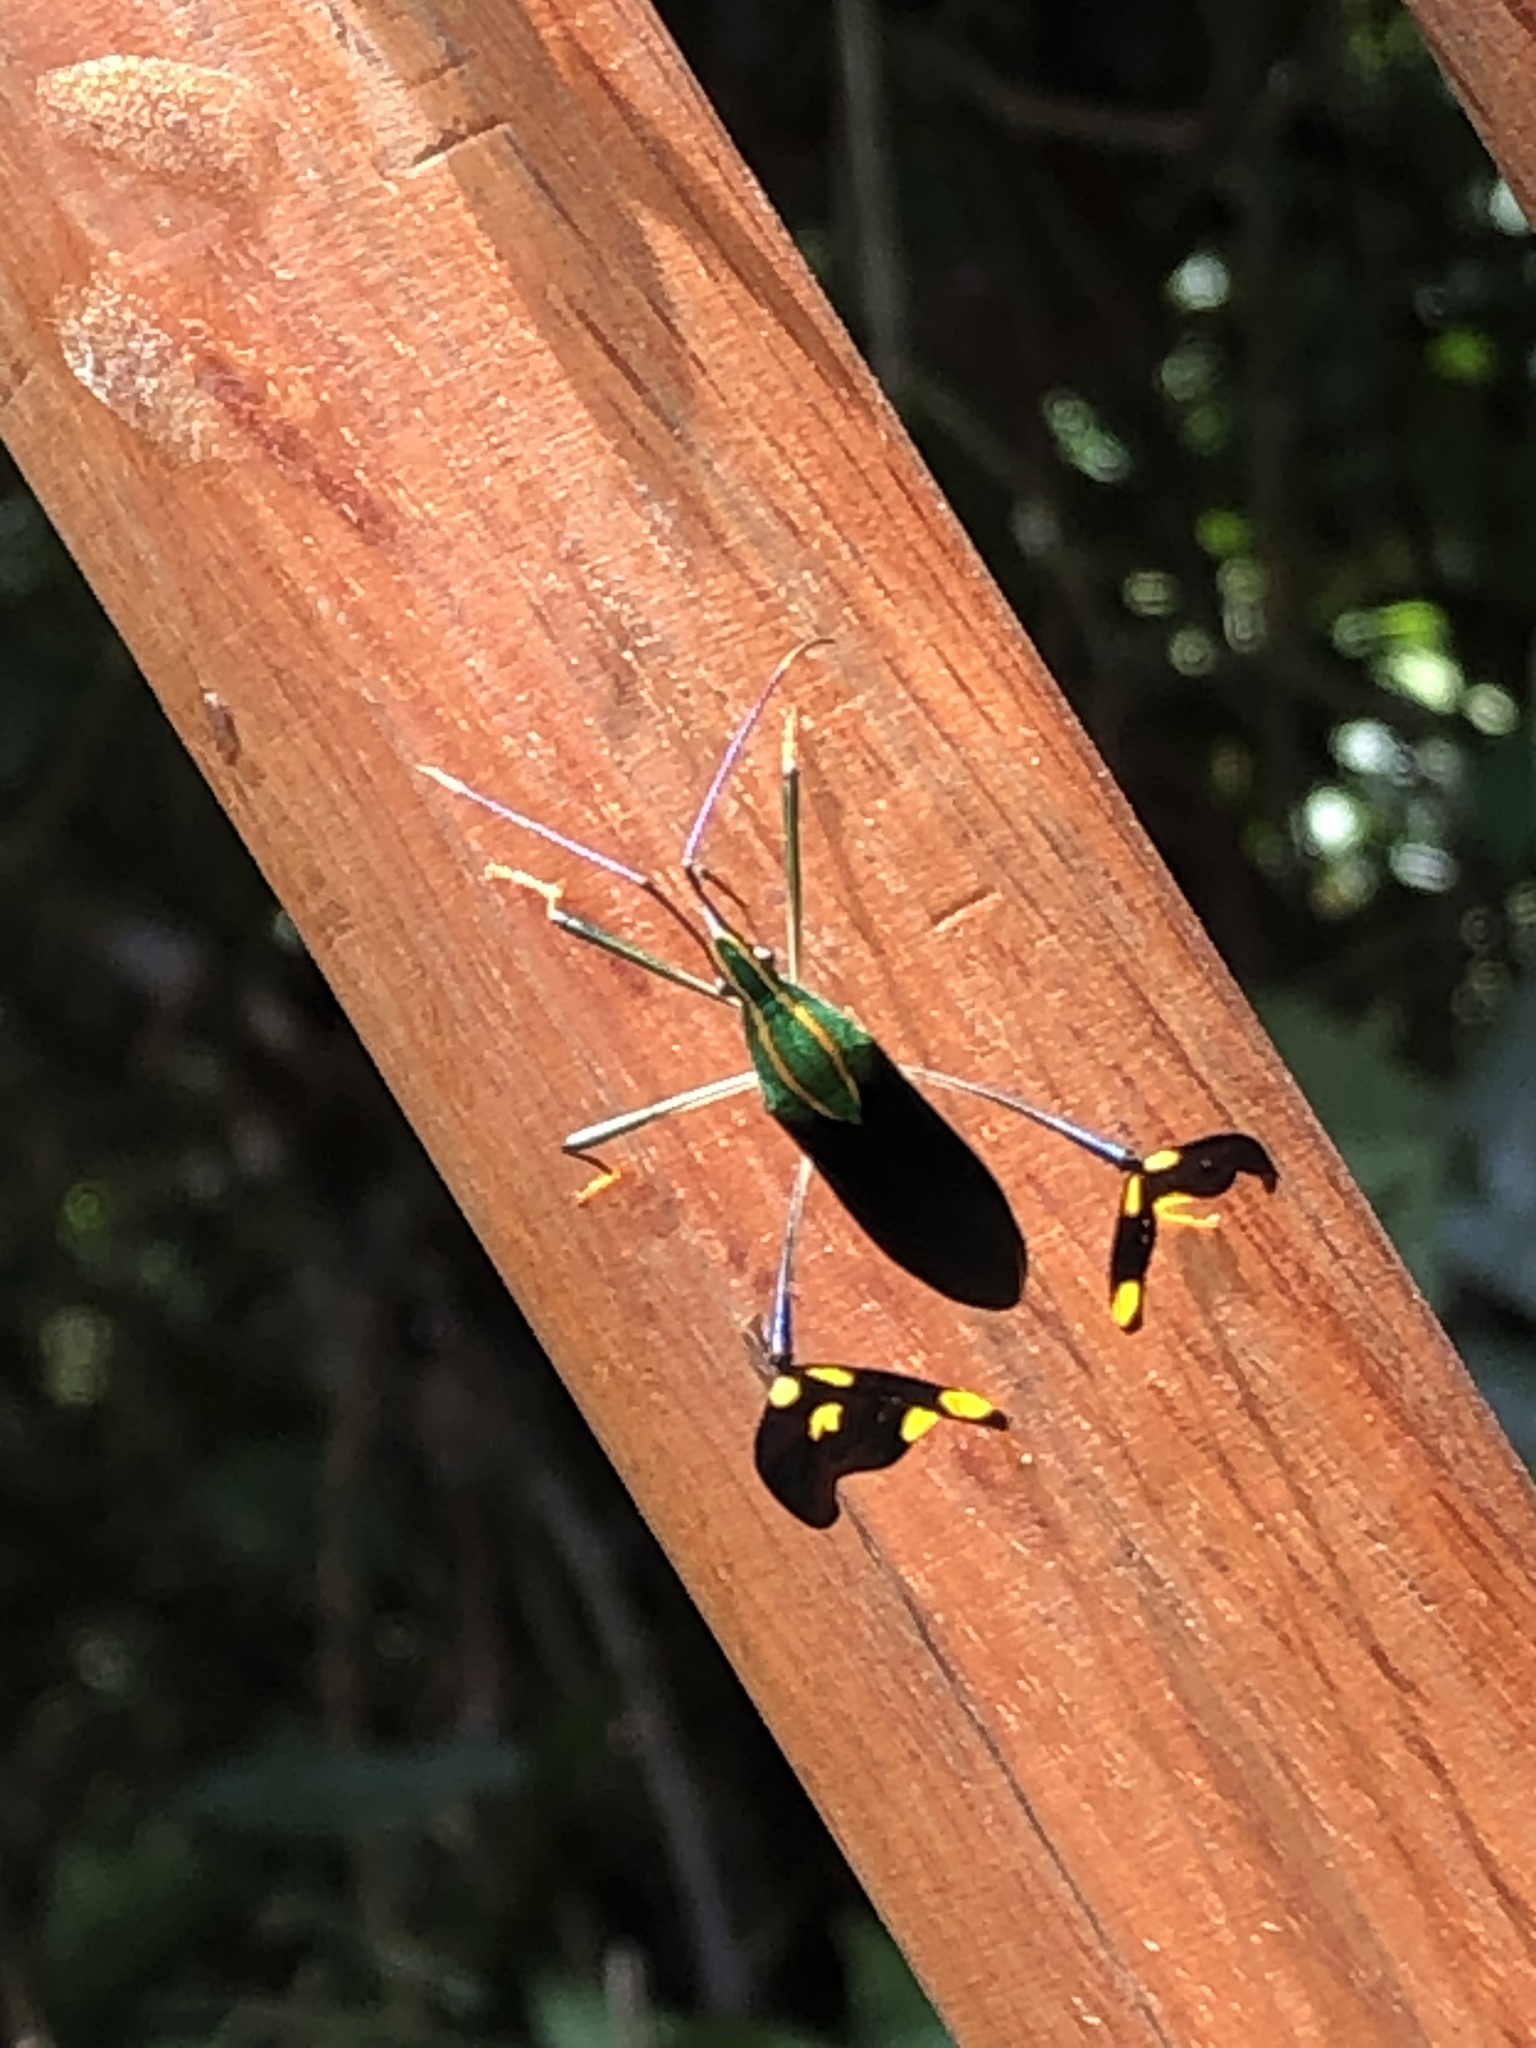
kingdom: Animalia
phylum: Arthropoda
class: Insecta
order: Hemiptera
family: Coreidae
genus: Diactor
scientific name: Diactor bilineatus
